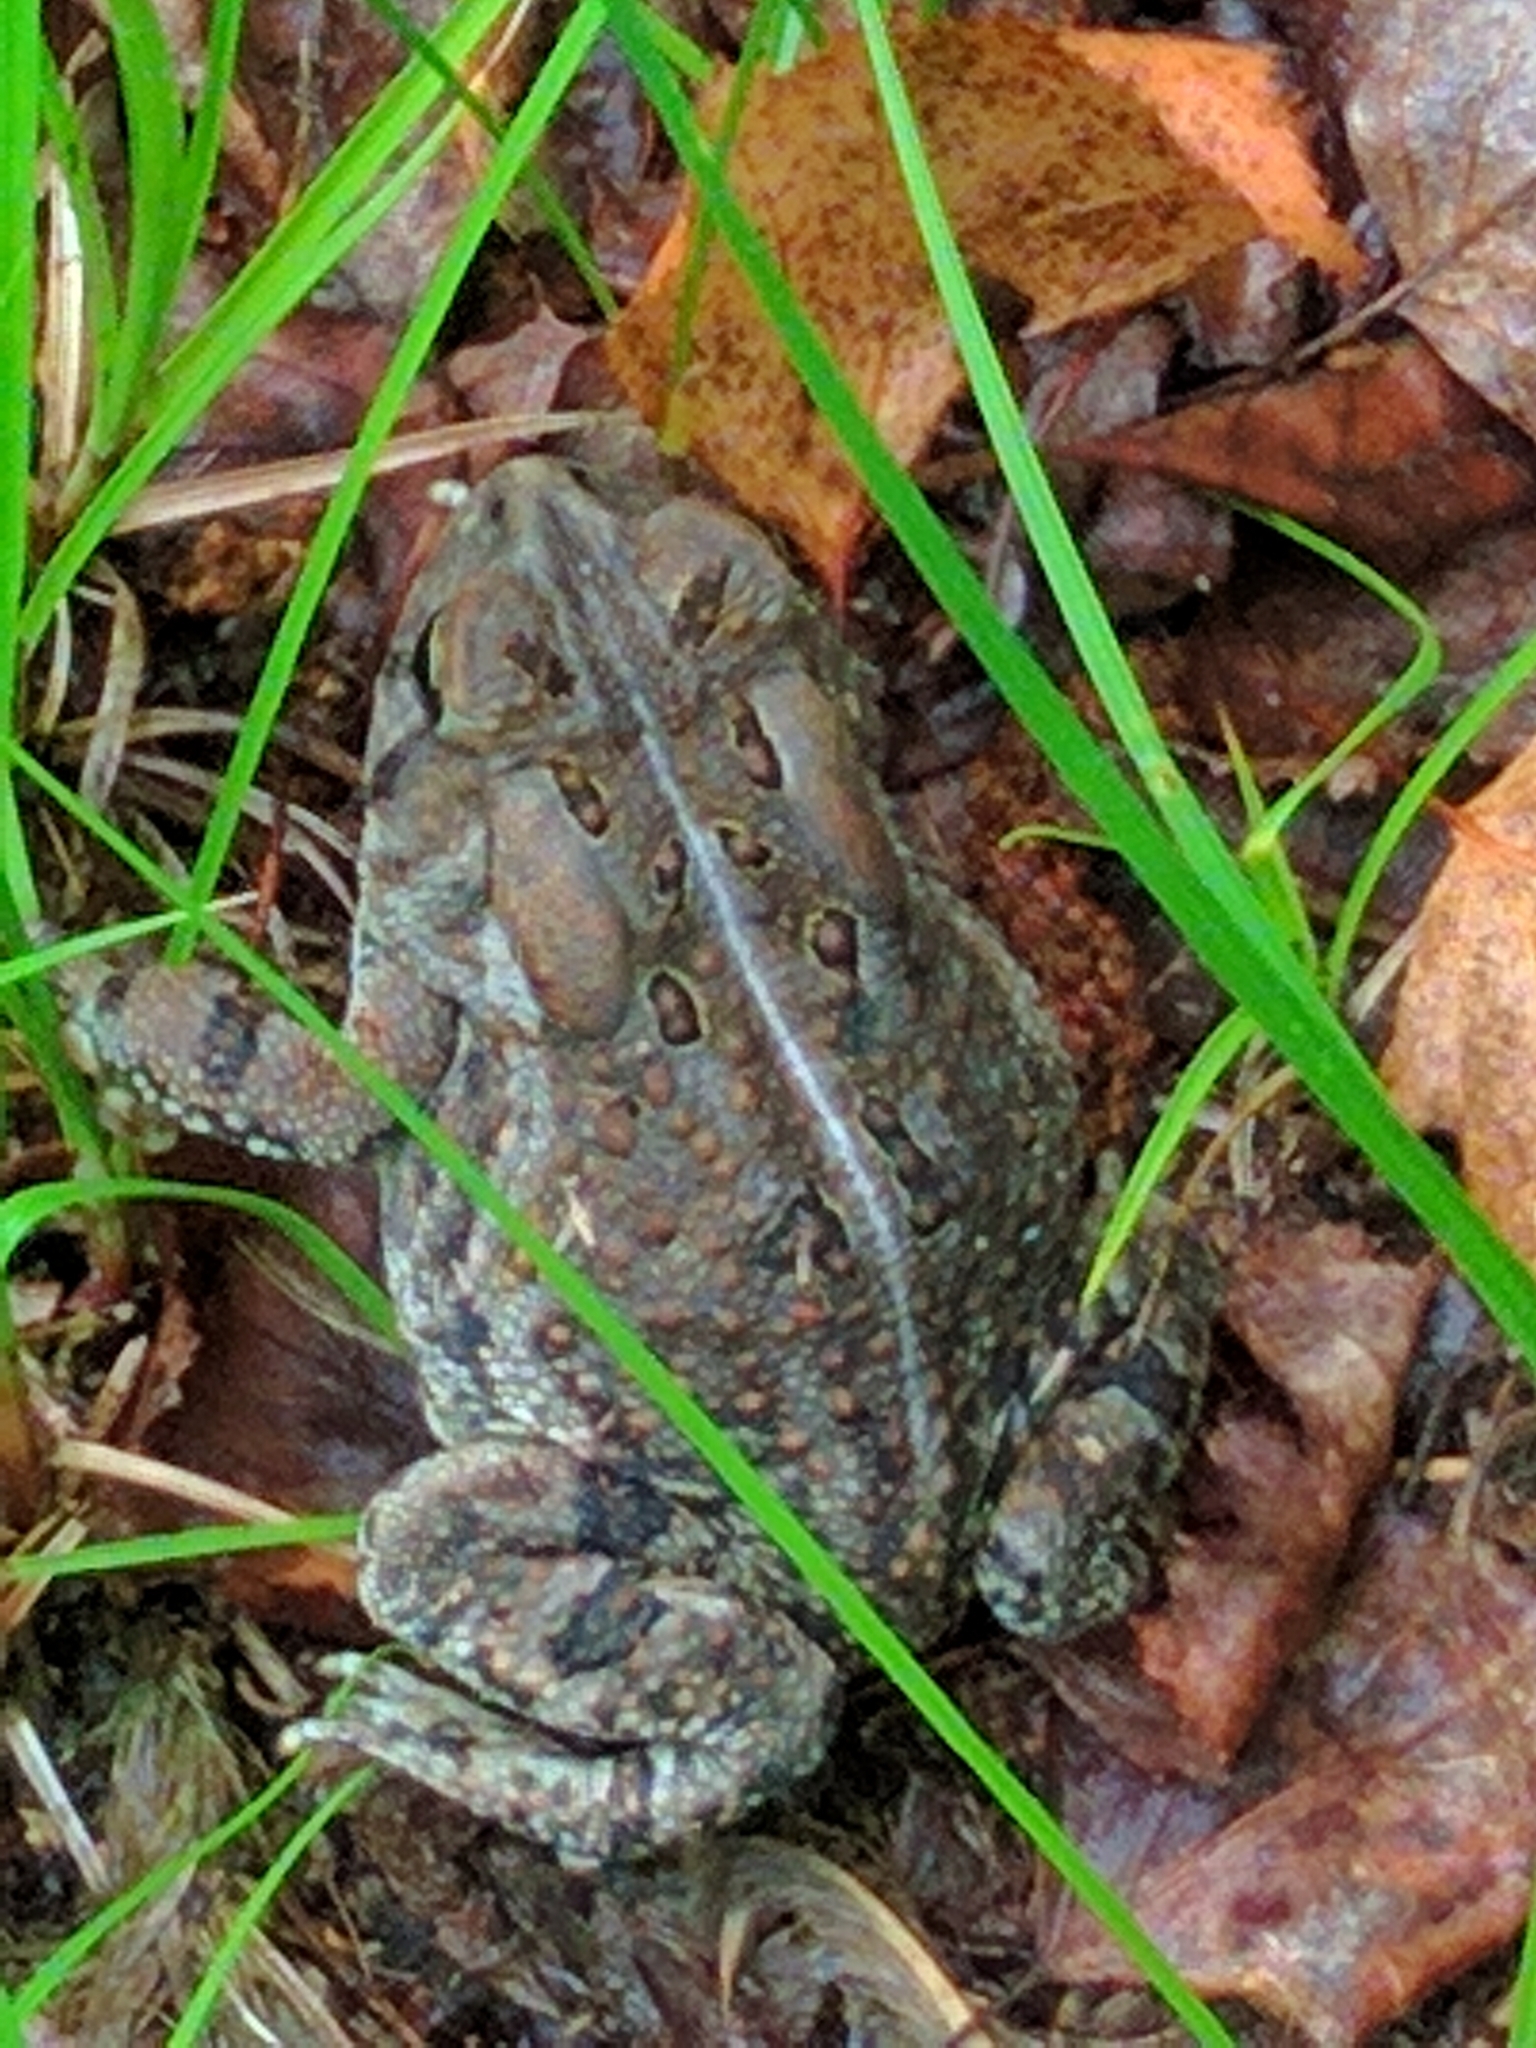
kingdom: Animalia
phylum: Chordata
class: Amphibia
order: Anura
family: Bufonidae
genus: Anaxyrus
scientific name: Anaxyrus fowleri
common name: Fowler's toad
